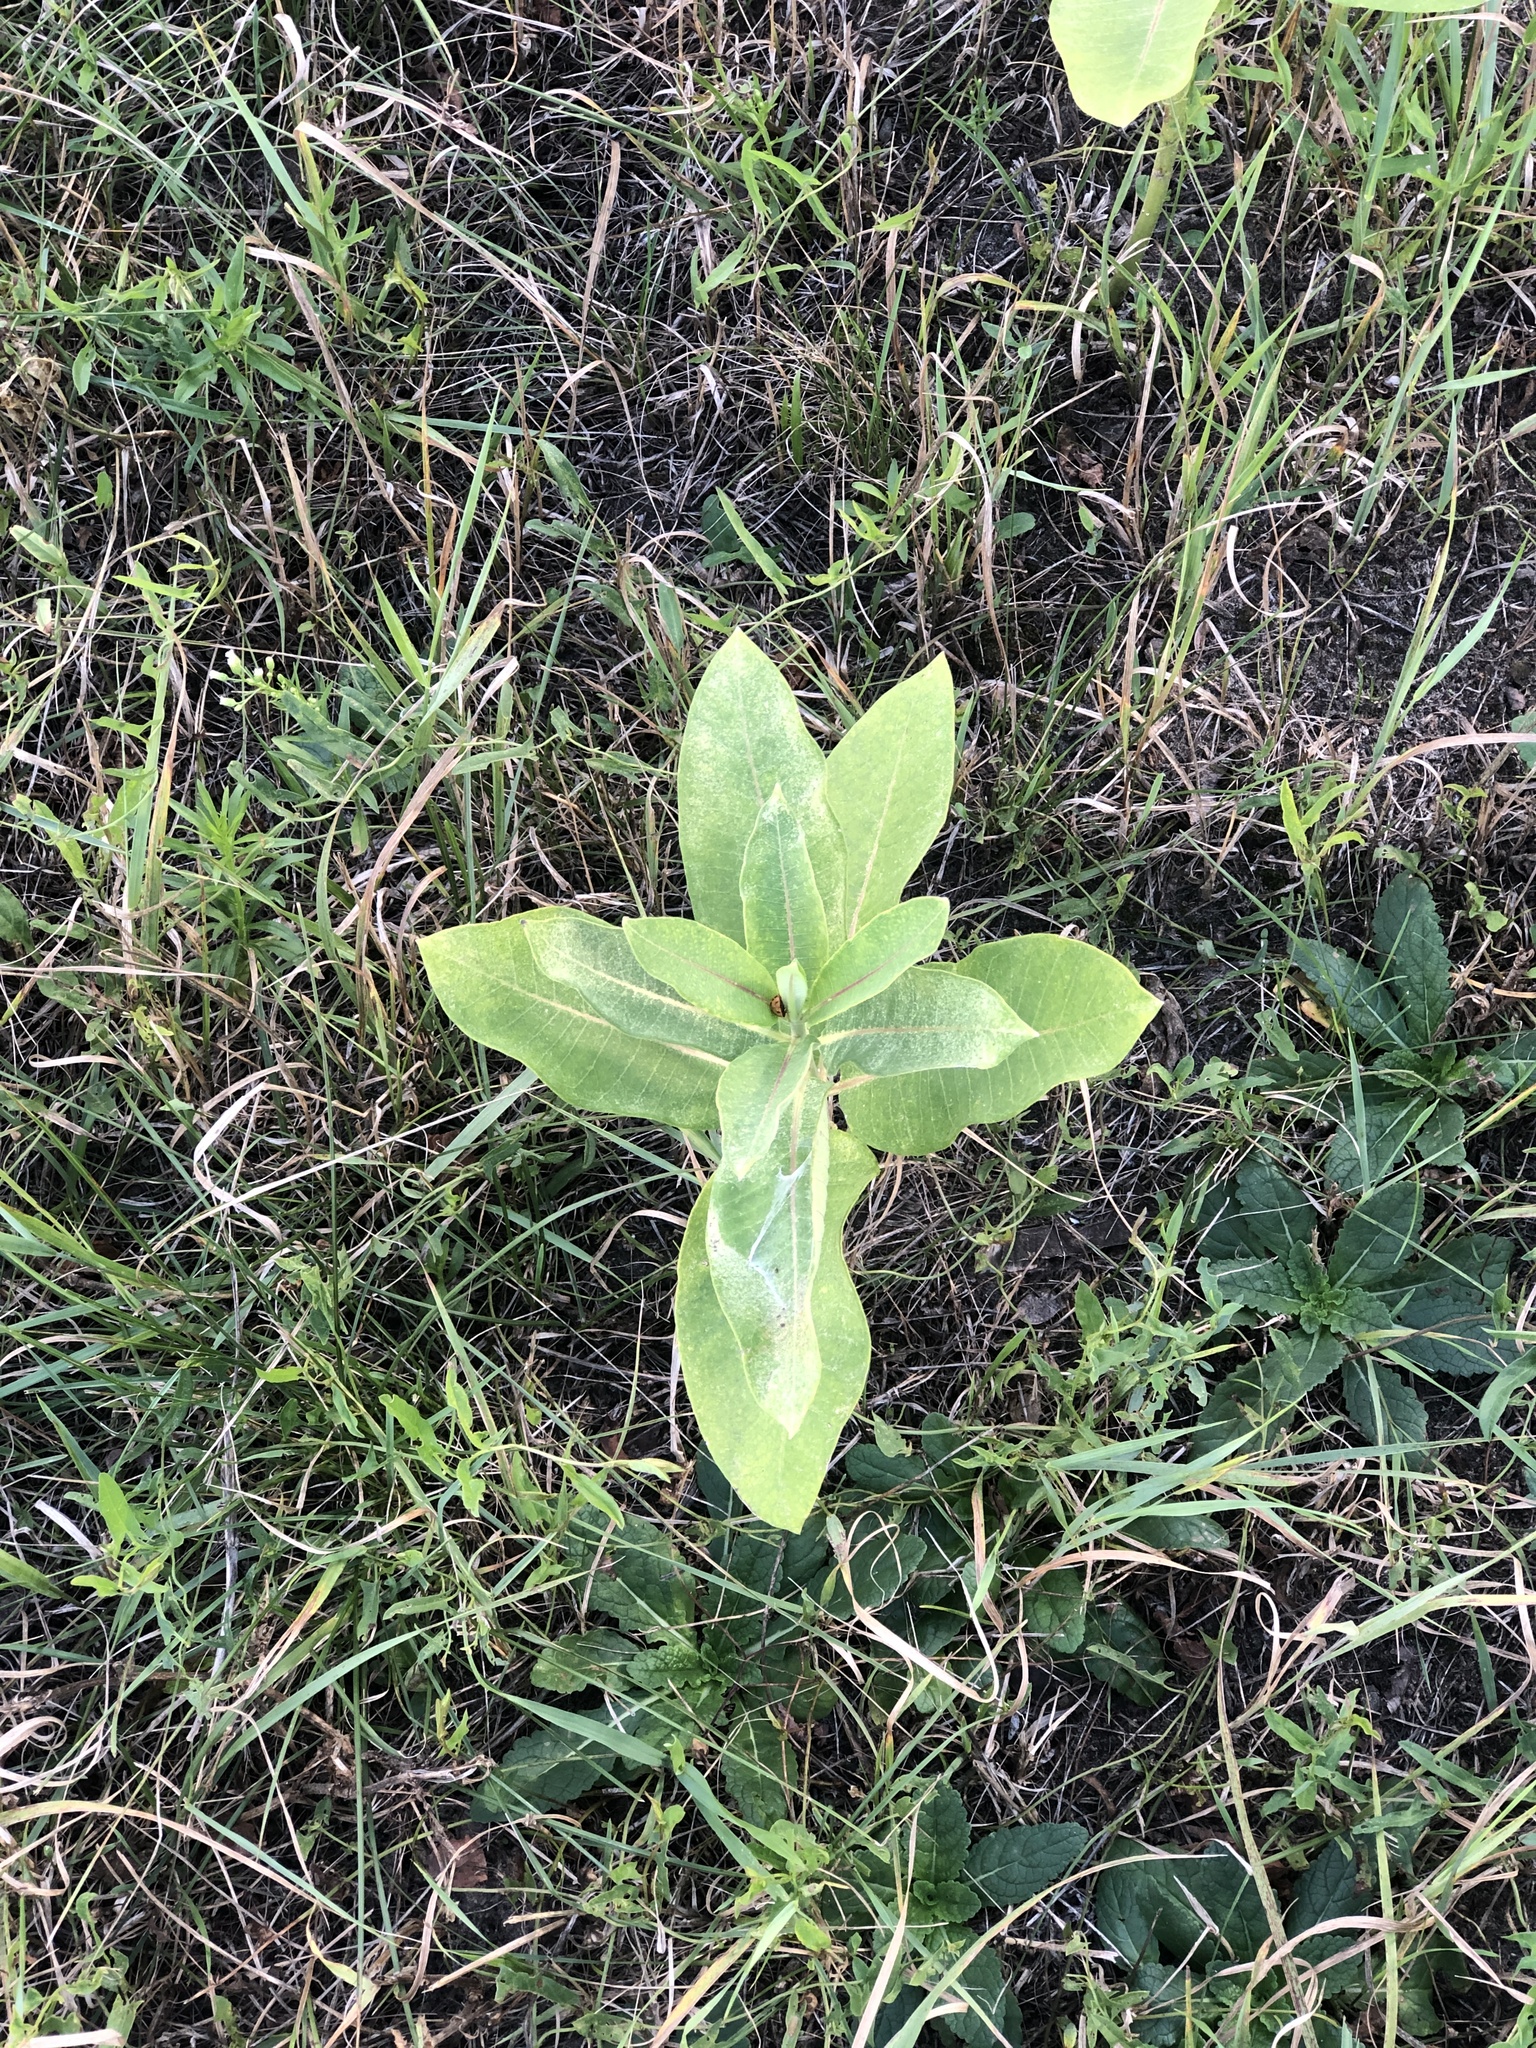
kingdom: Plantae
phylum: Tracheophyta
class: Magnoliopsida
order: Gentianales
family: Apocynaceae
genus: Asclepias
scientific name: Asclepias syriaca
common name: Common milkweed
